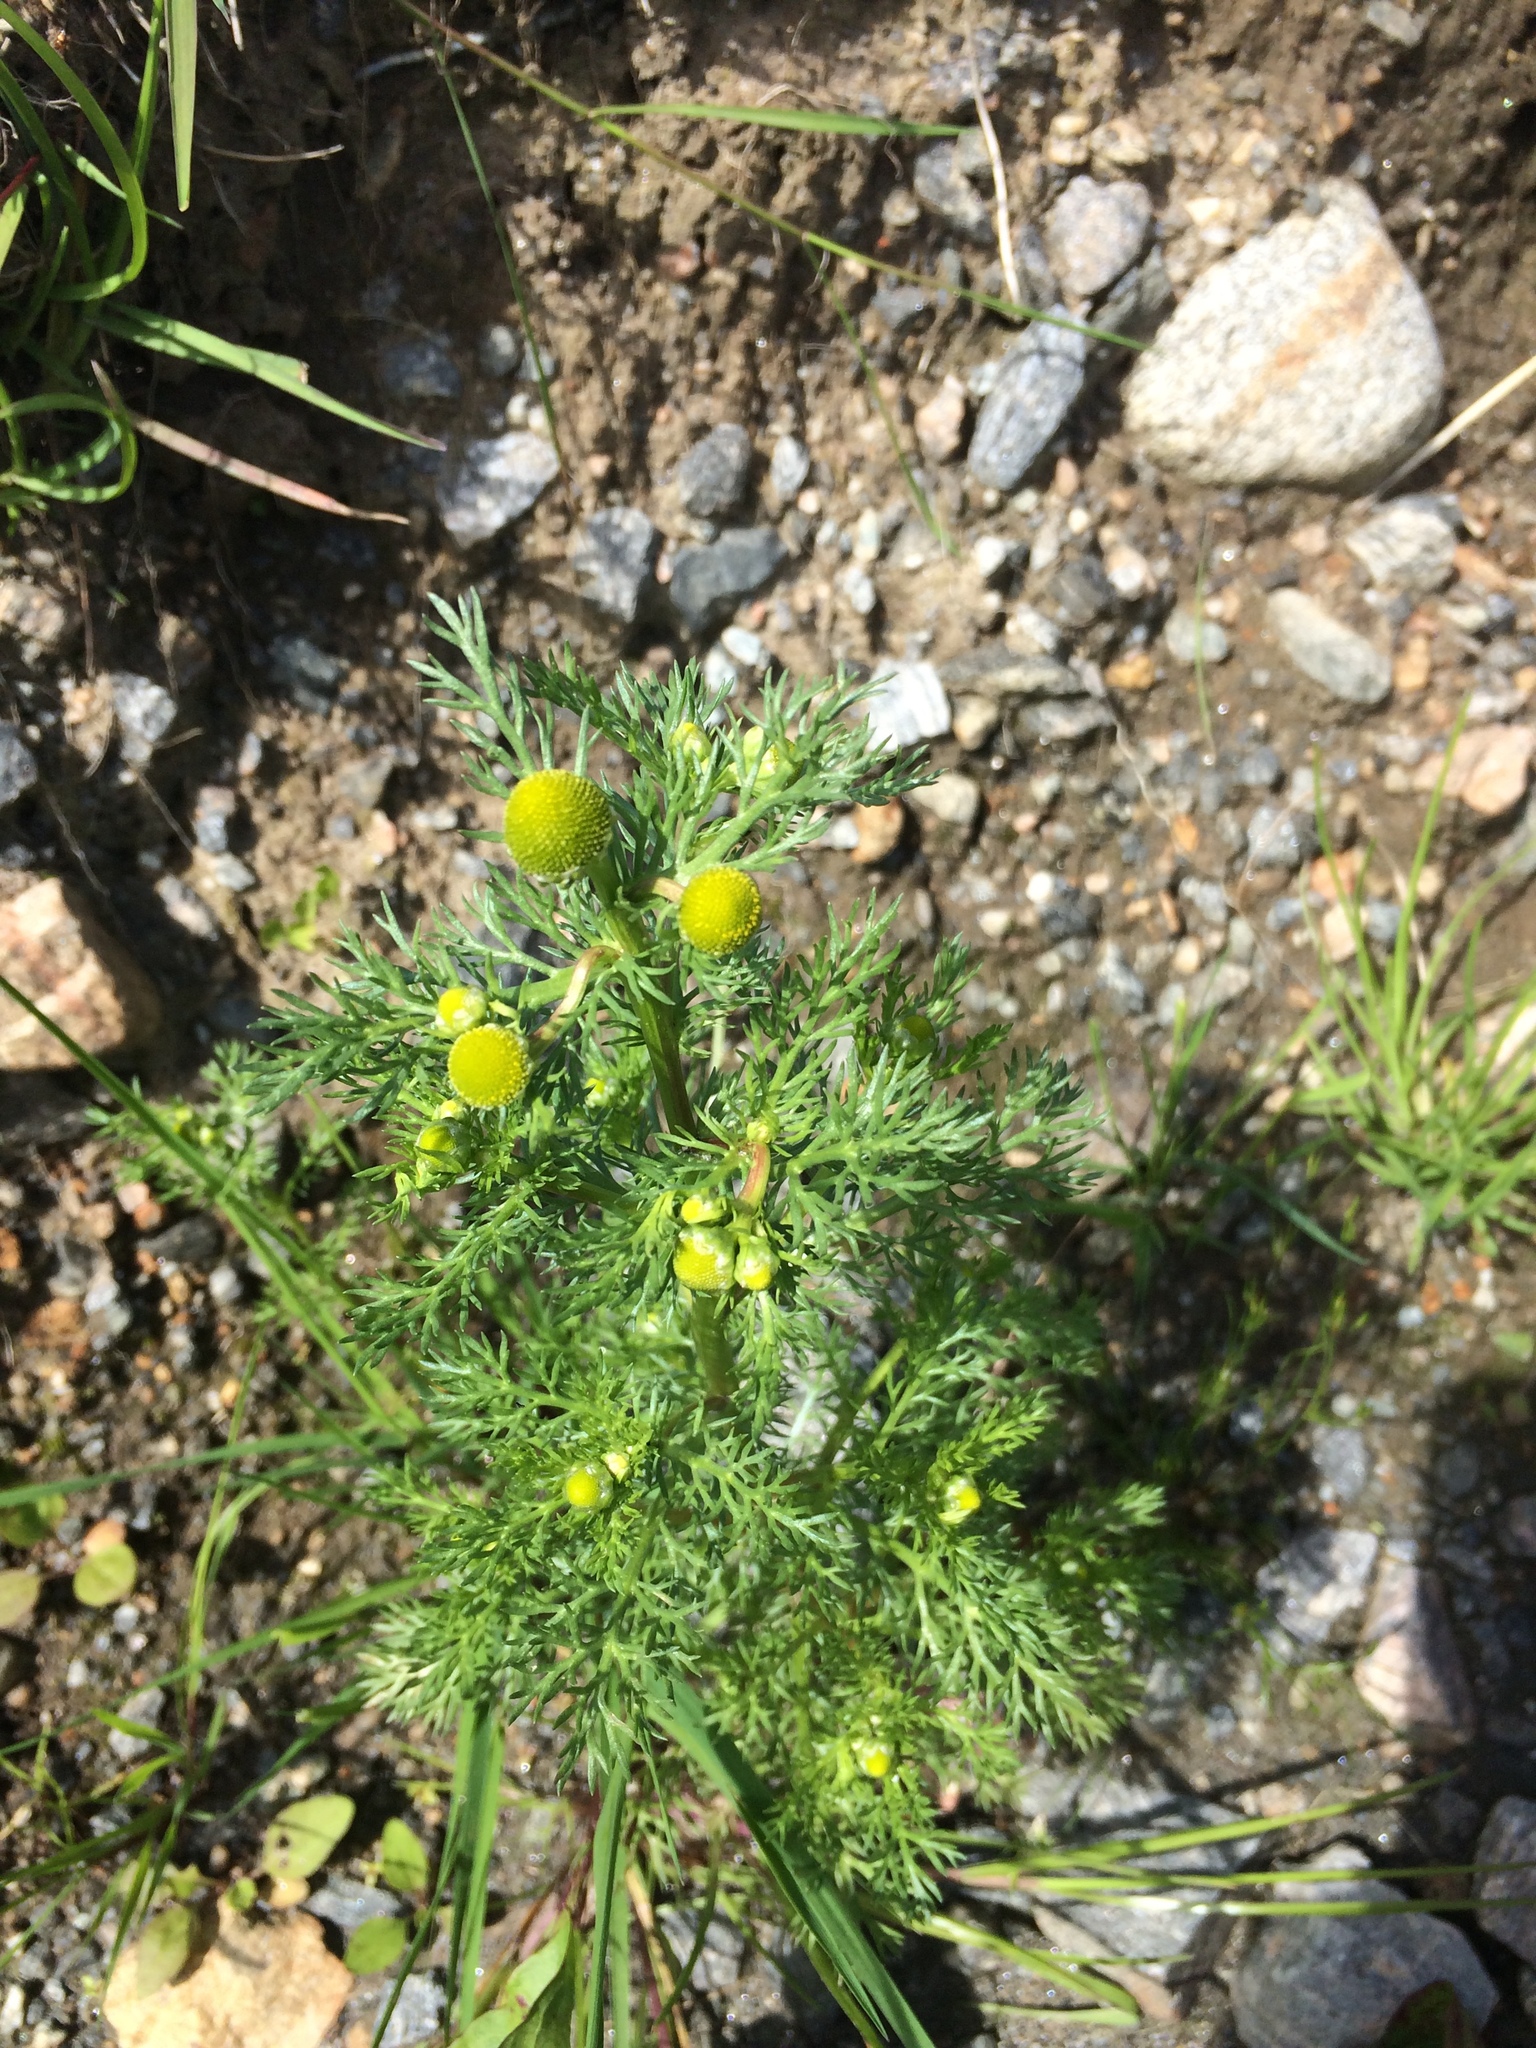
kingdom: Plantae
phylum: Tracheophyta
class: Magnoliopsida
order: Asterales
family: Asteraceae
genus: Matricaria
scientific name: Matricaria discoidea
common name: Disc mayweed
